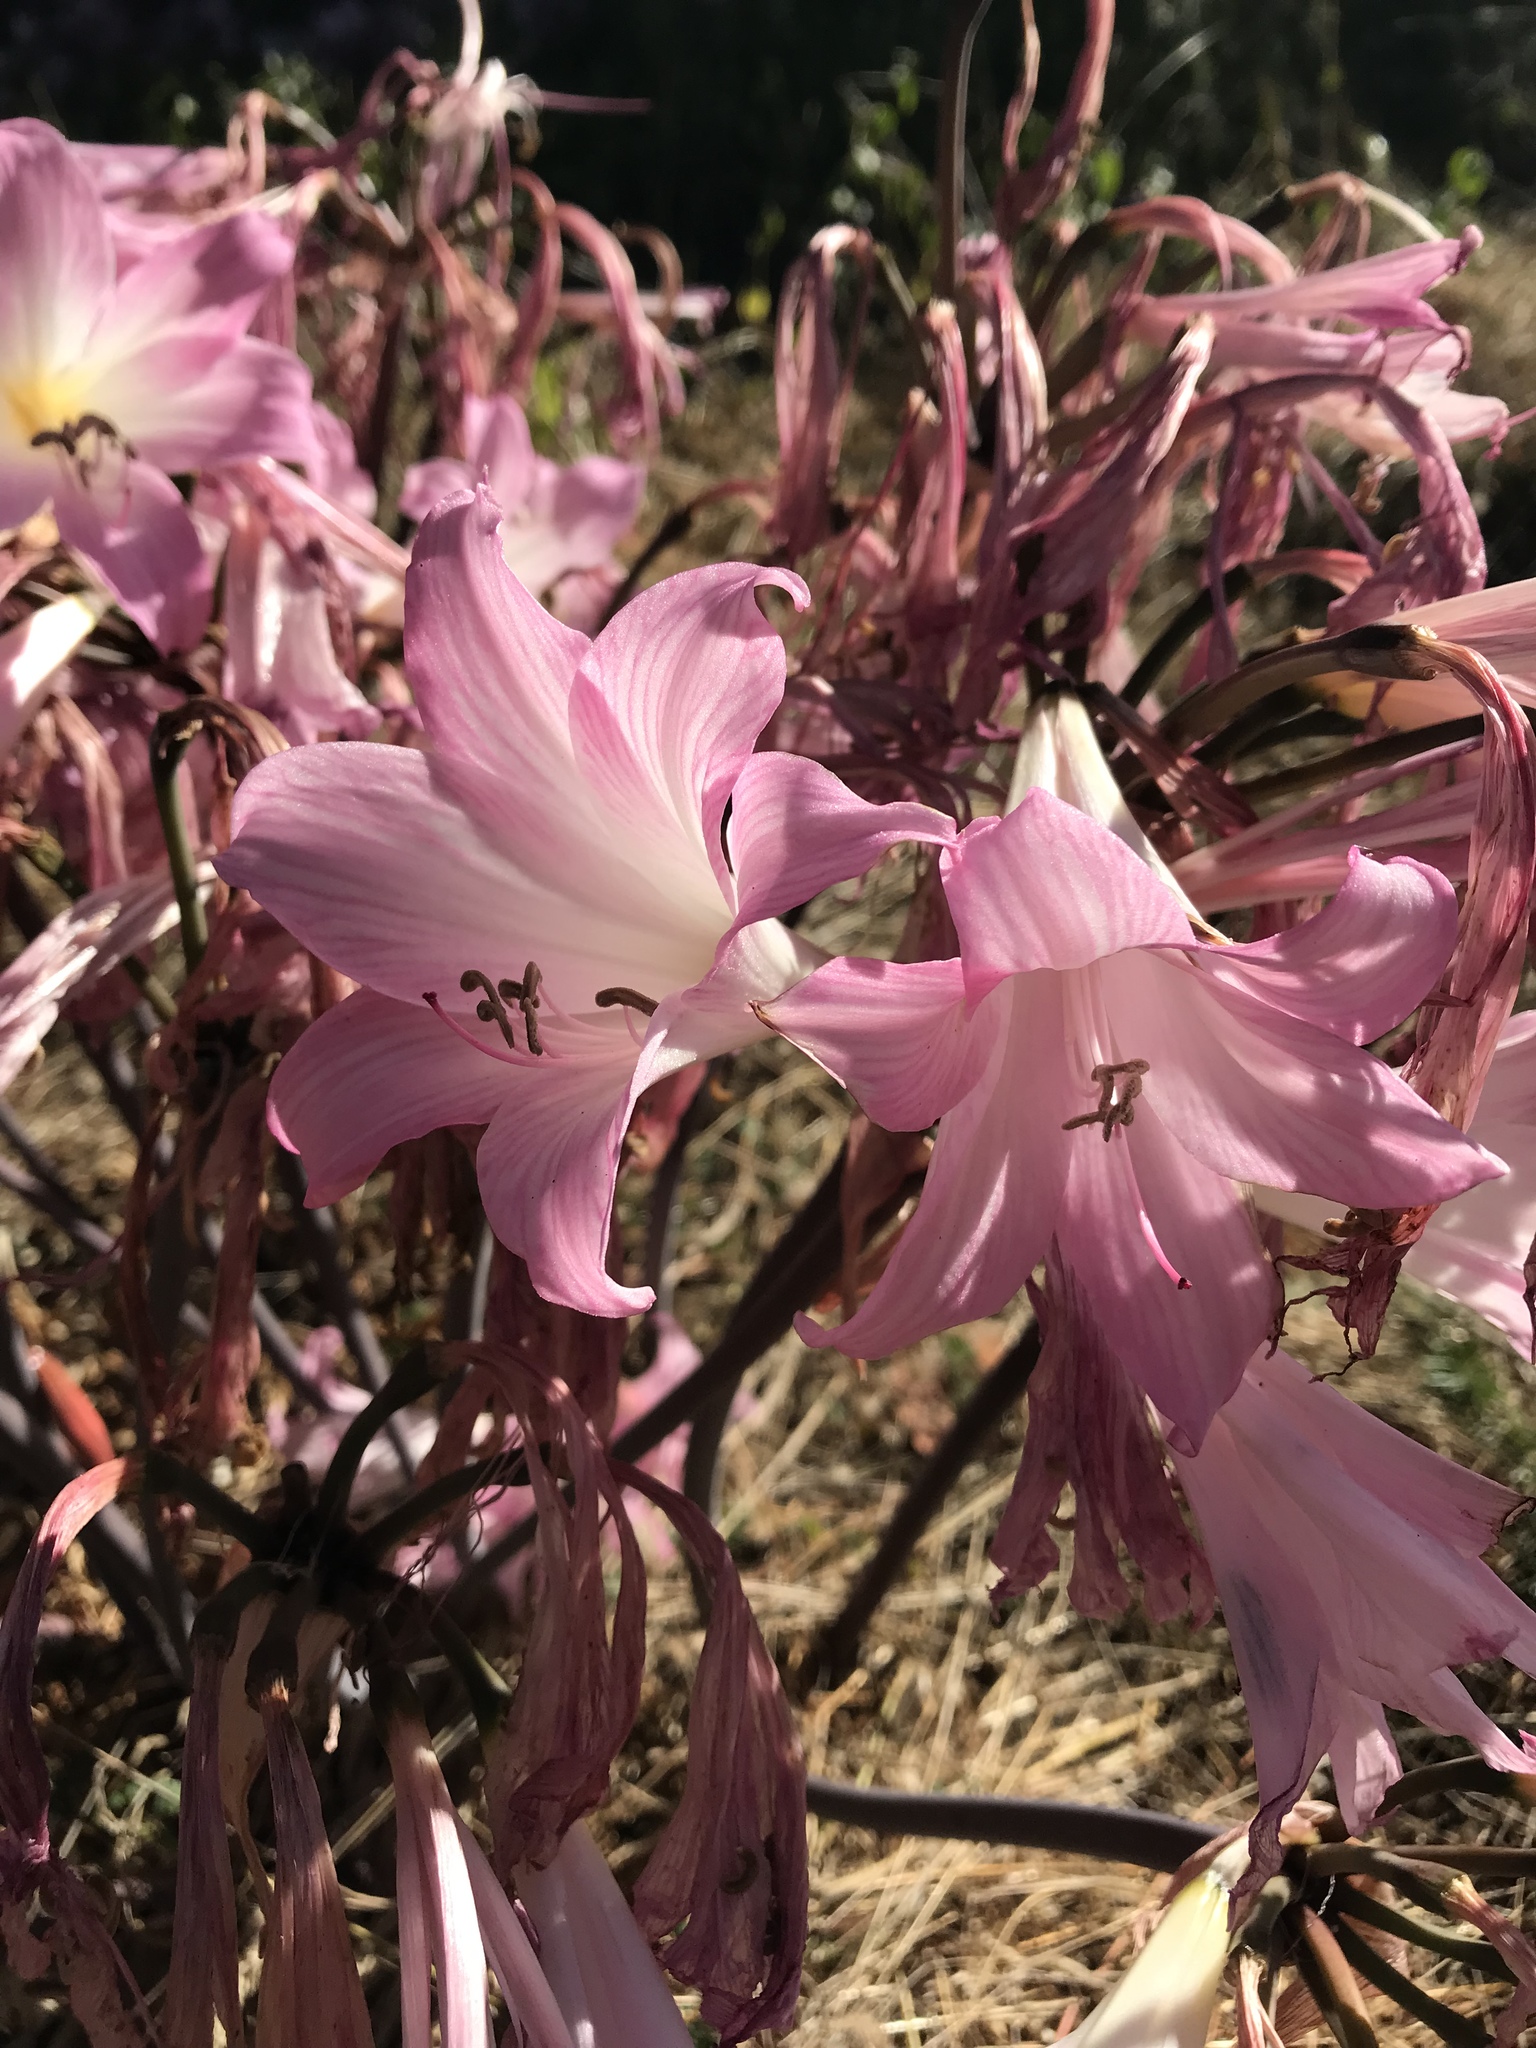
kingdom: Plantae
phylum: Tracheophyta
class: Liliopsida
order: Asparagales
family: Amaryllidaceae
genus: Amaryllis
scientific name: Amaryllis belladonna
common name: Jersey lily
